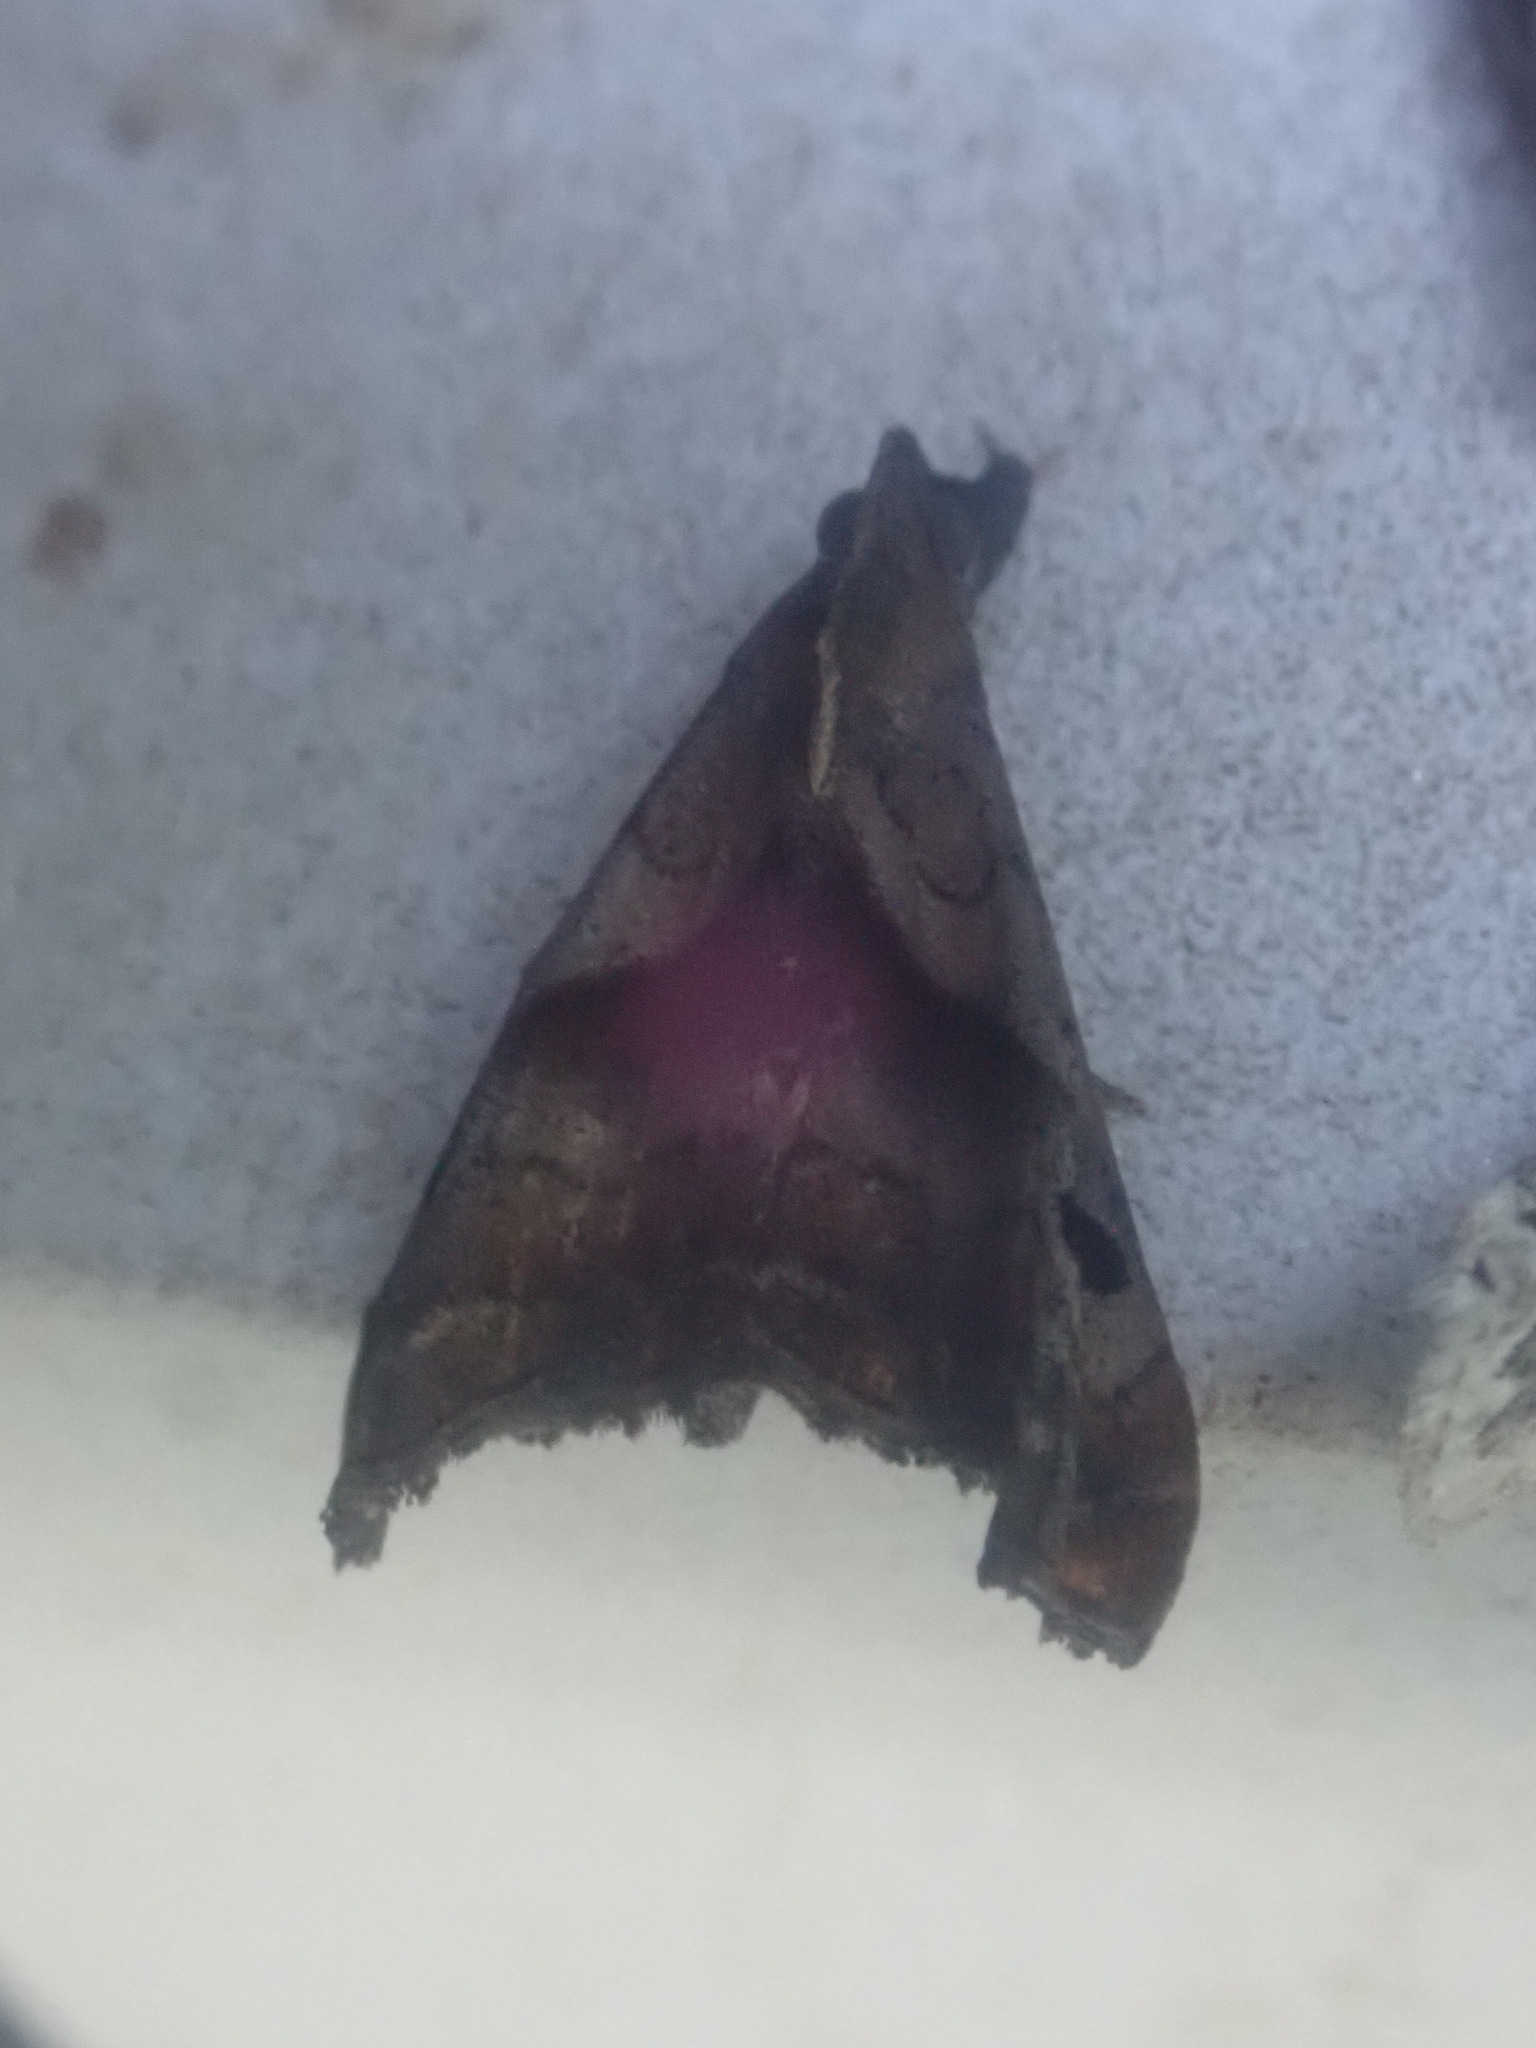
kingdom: Animalia
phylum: Arthropoda
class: Insecta
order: Lepidoptera
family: Erebidae
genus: Palthis
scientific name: Palthis angulalis
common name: Dark-spotted palthis moth
